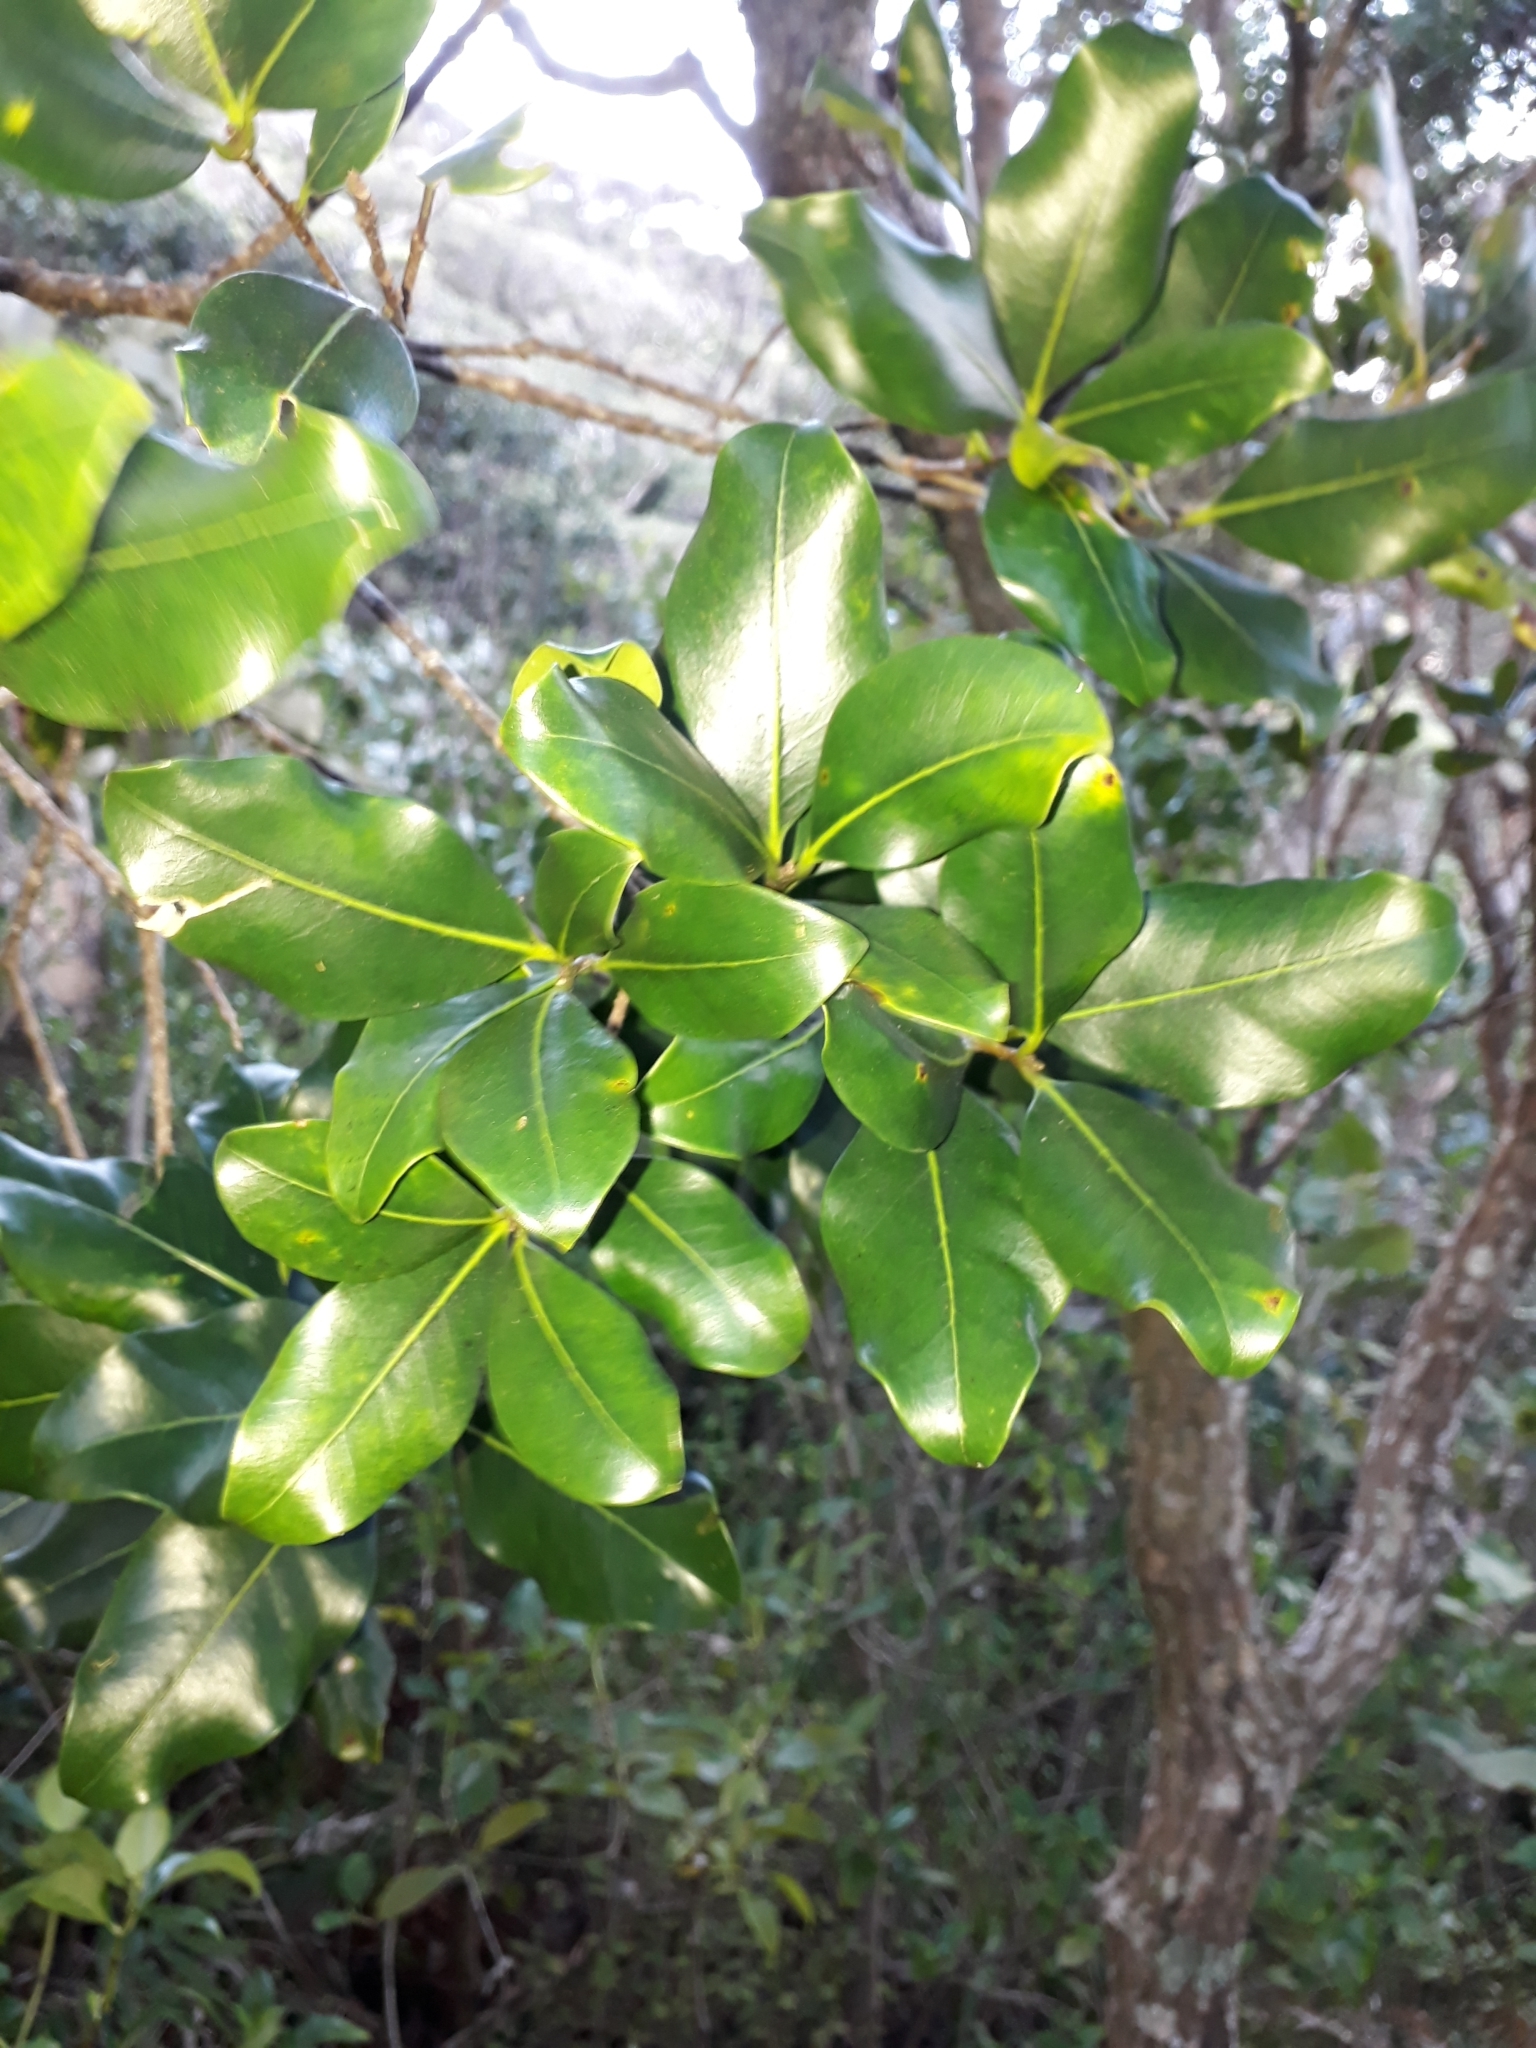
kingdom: Plantae
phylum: Tracheophyta
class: Magnoliopsida
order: Lamiales
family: Oleaceae
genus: Nestegis
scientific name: Nestegis apetala
